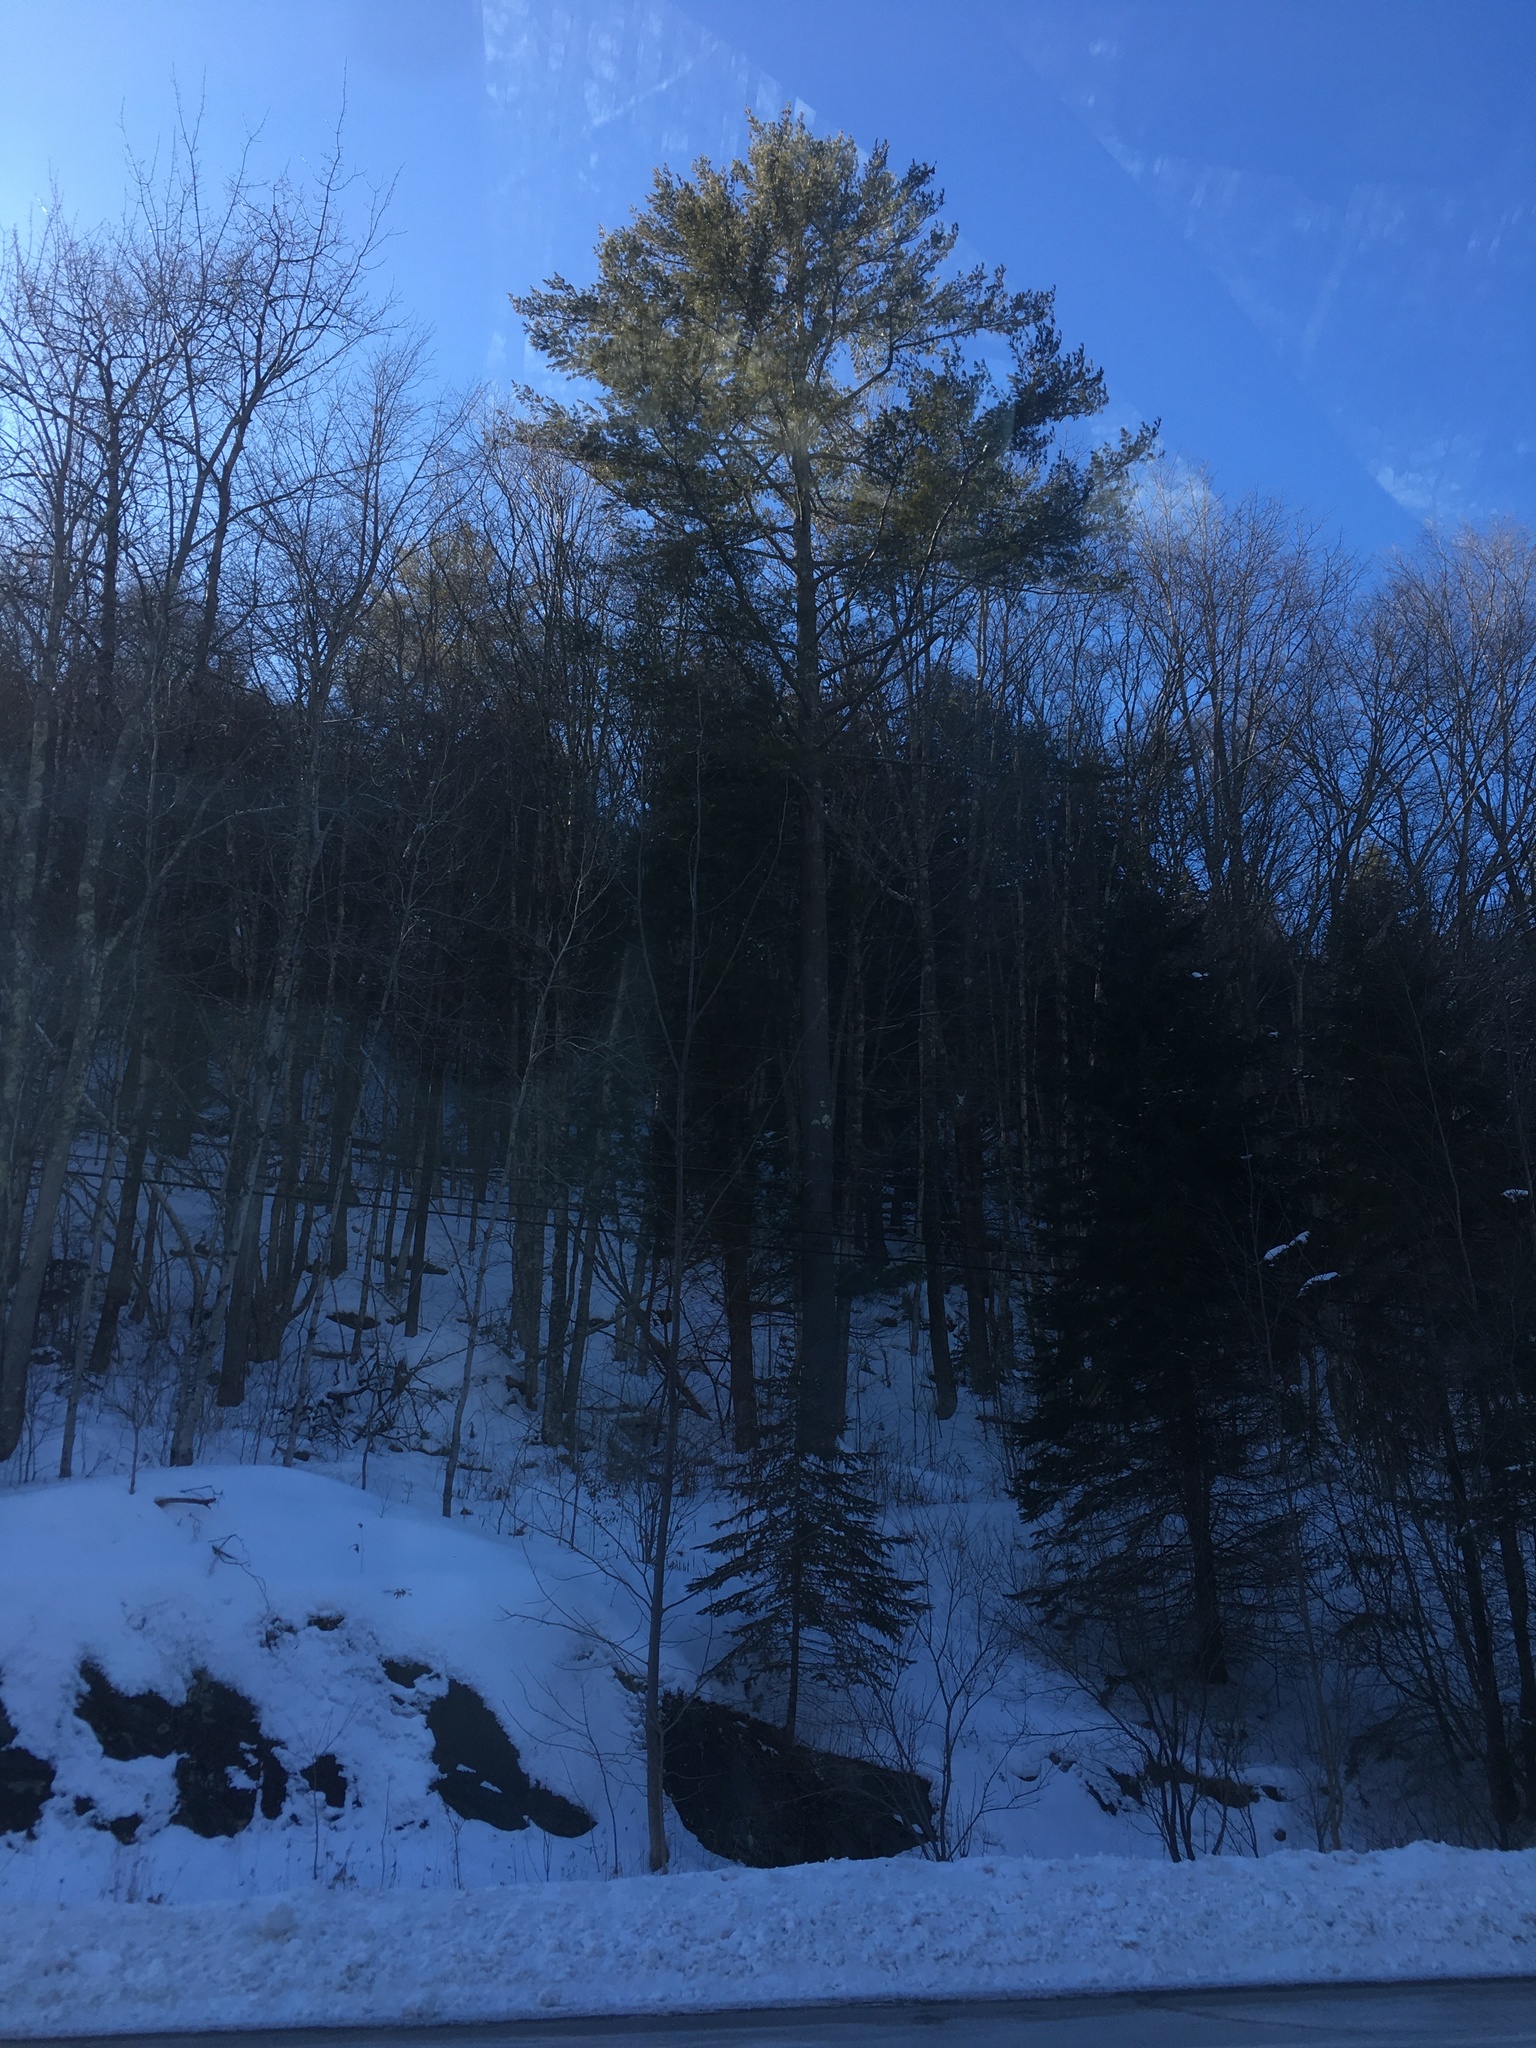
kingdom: Plantae
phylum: Tracheophyta
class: Pinopsida
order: Pinales
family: Pinaceae
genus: Pinus
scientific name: Pinus strobus
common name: Weymouth pine
